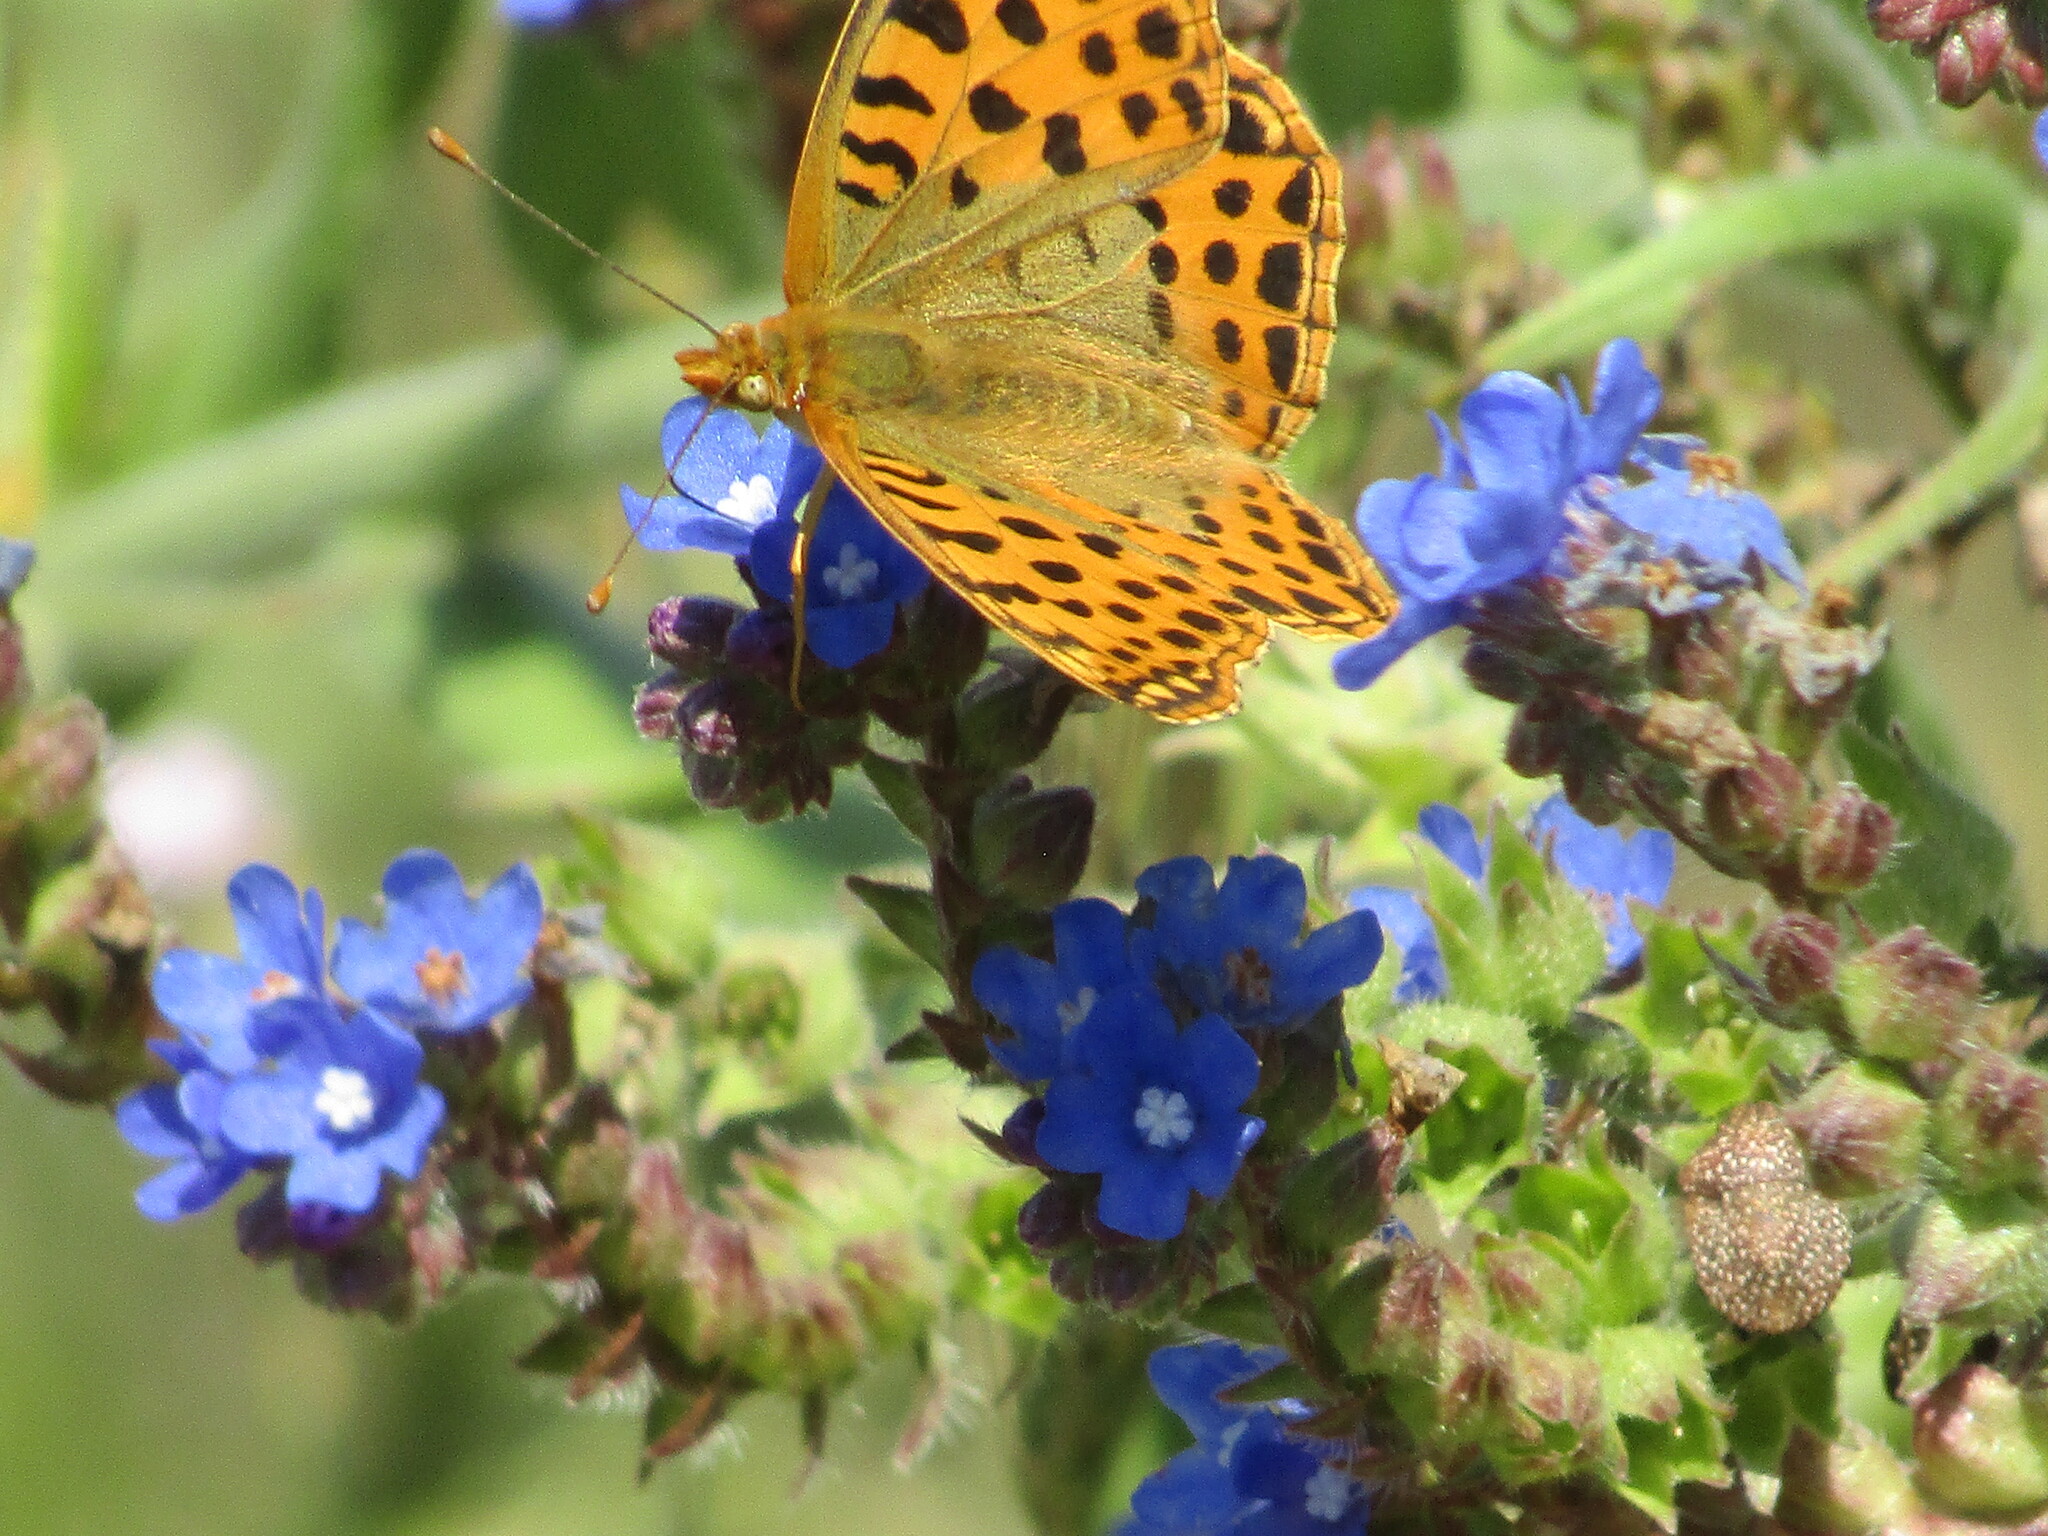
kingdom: Animalia
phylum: Arthropoda
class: Insecta
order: Lepidoptera
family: Nymphalidae
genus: Issoria
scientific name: Issoria lathonia
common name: Queen of spain fritillary
